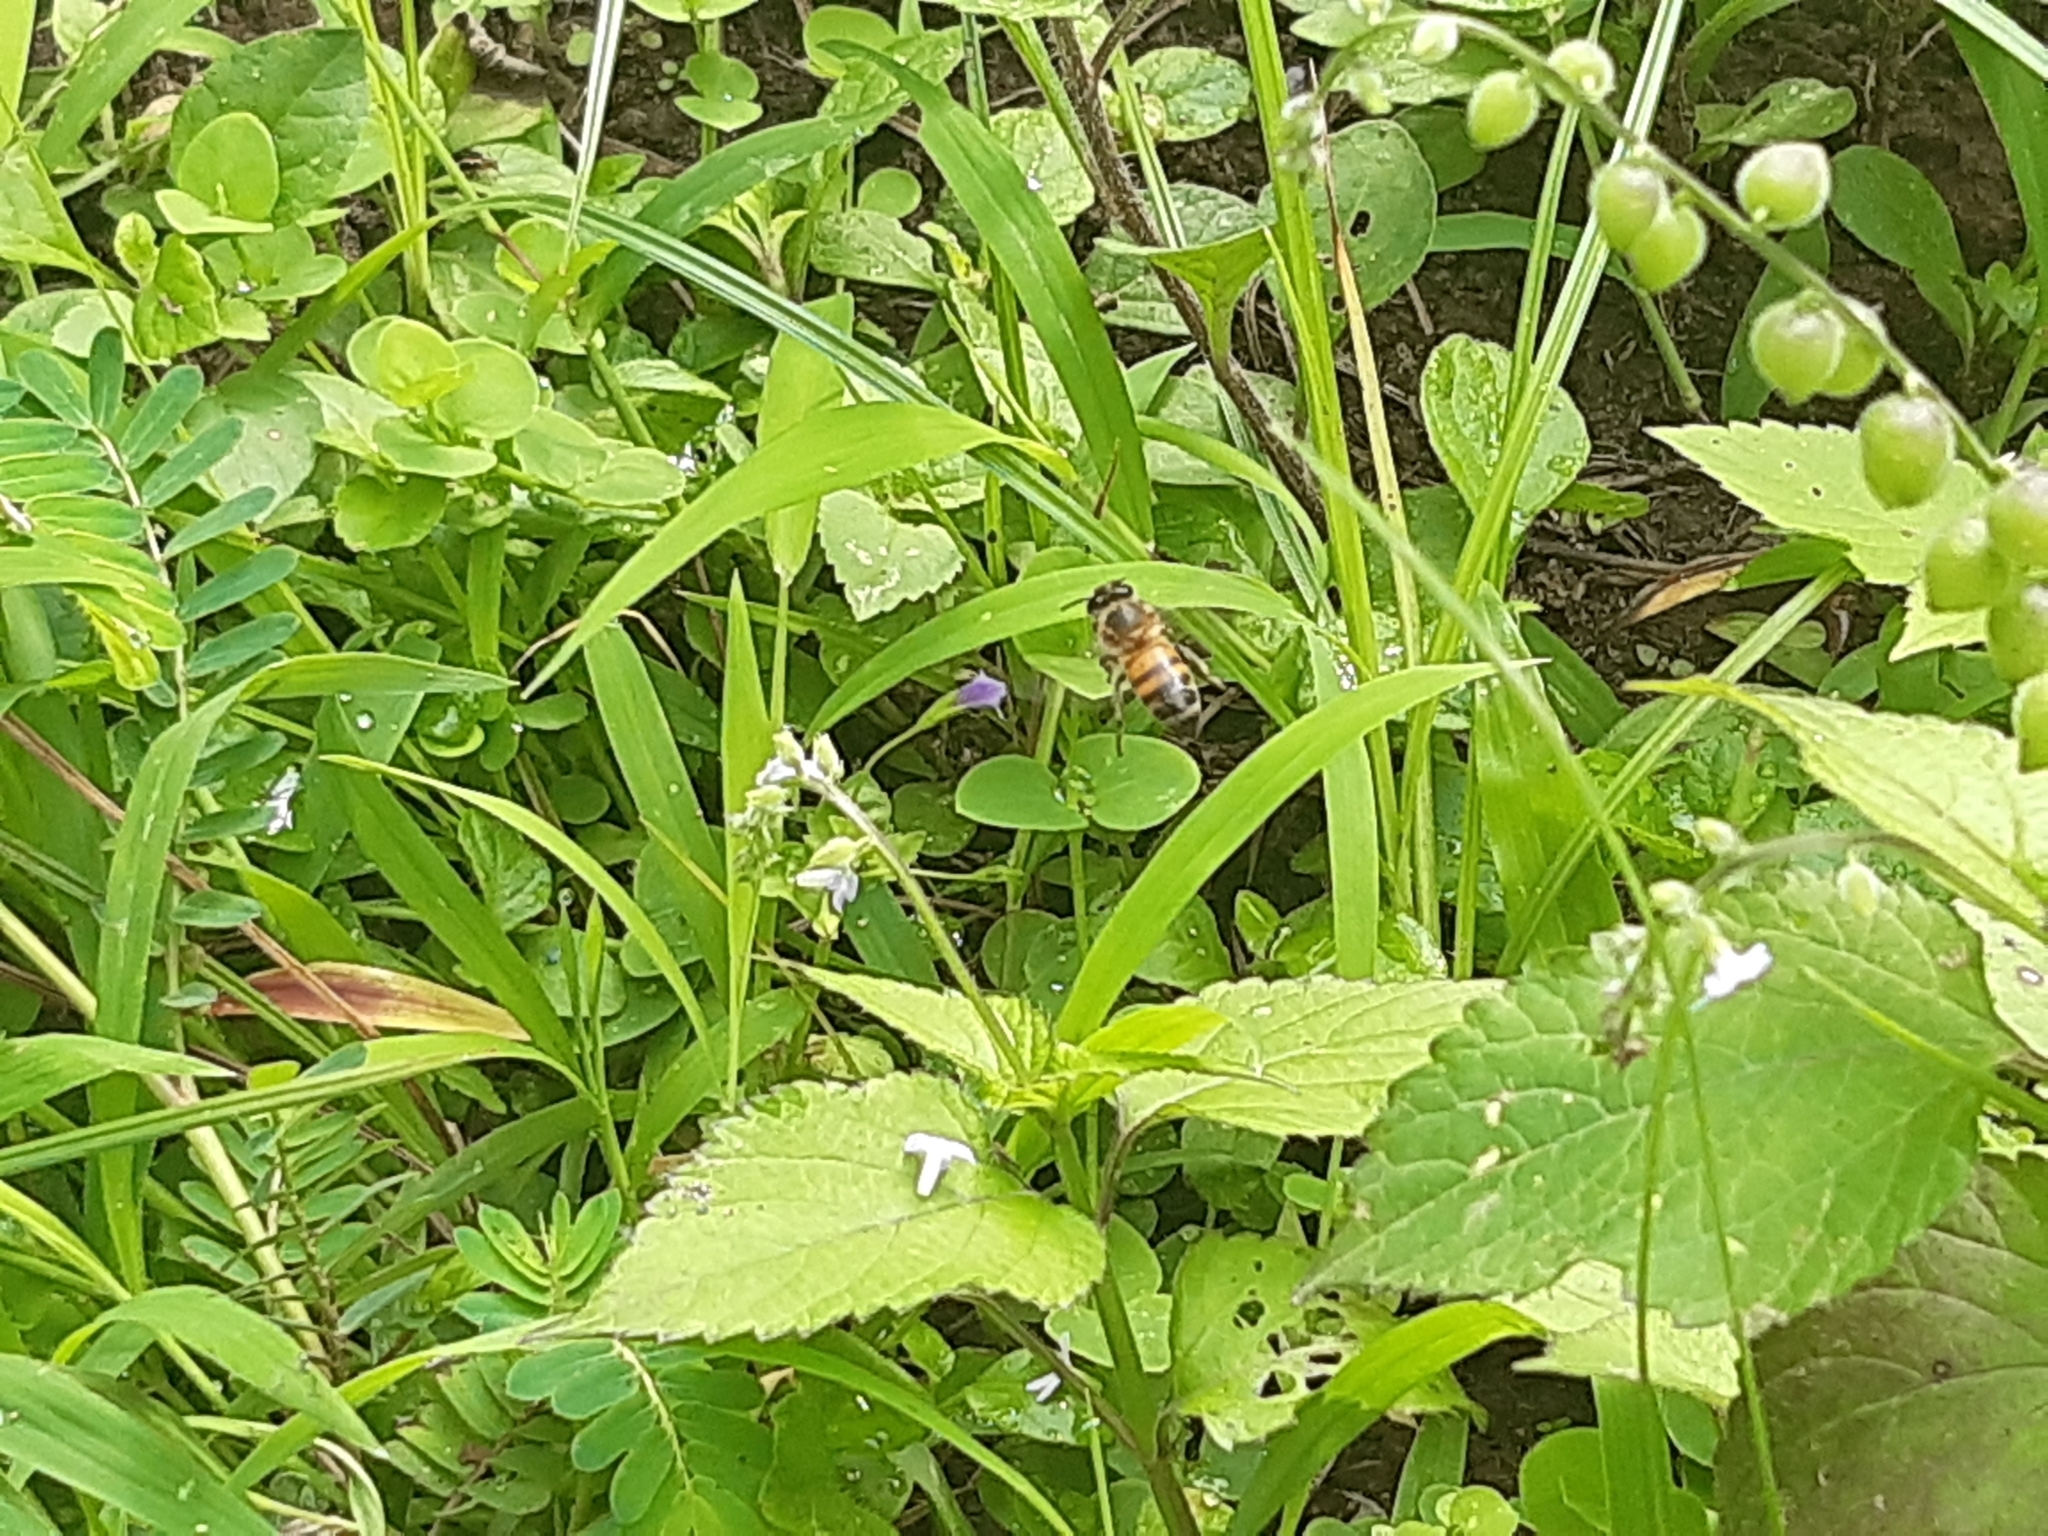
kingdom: Animalia
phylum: Arthropoda
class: Insecta
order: Hymenoptera
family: Apidae
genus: Apis
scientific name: Apis mellifera
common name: Honey bee
